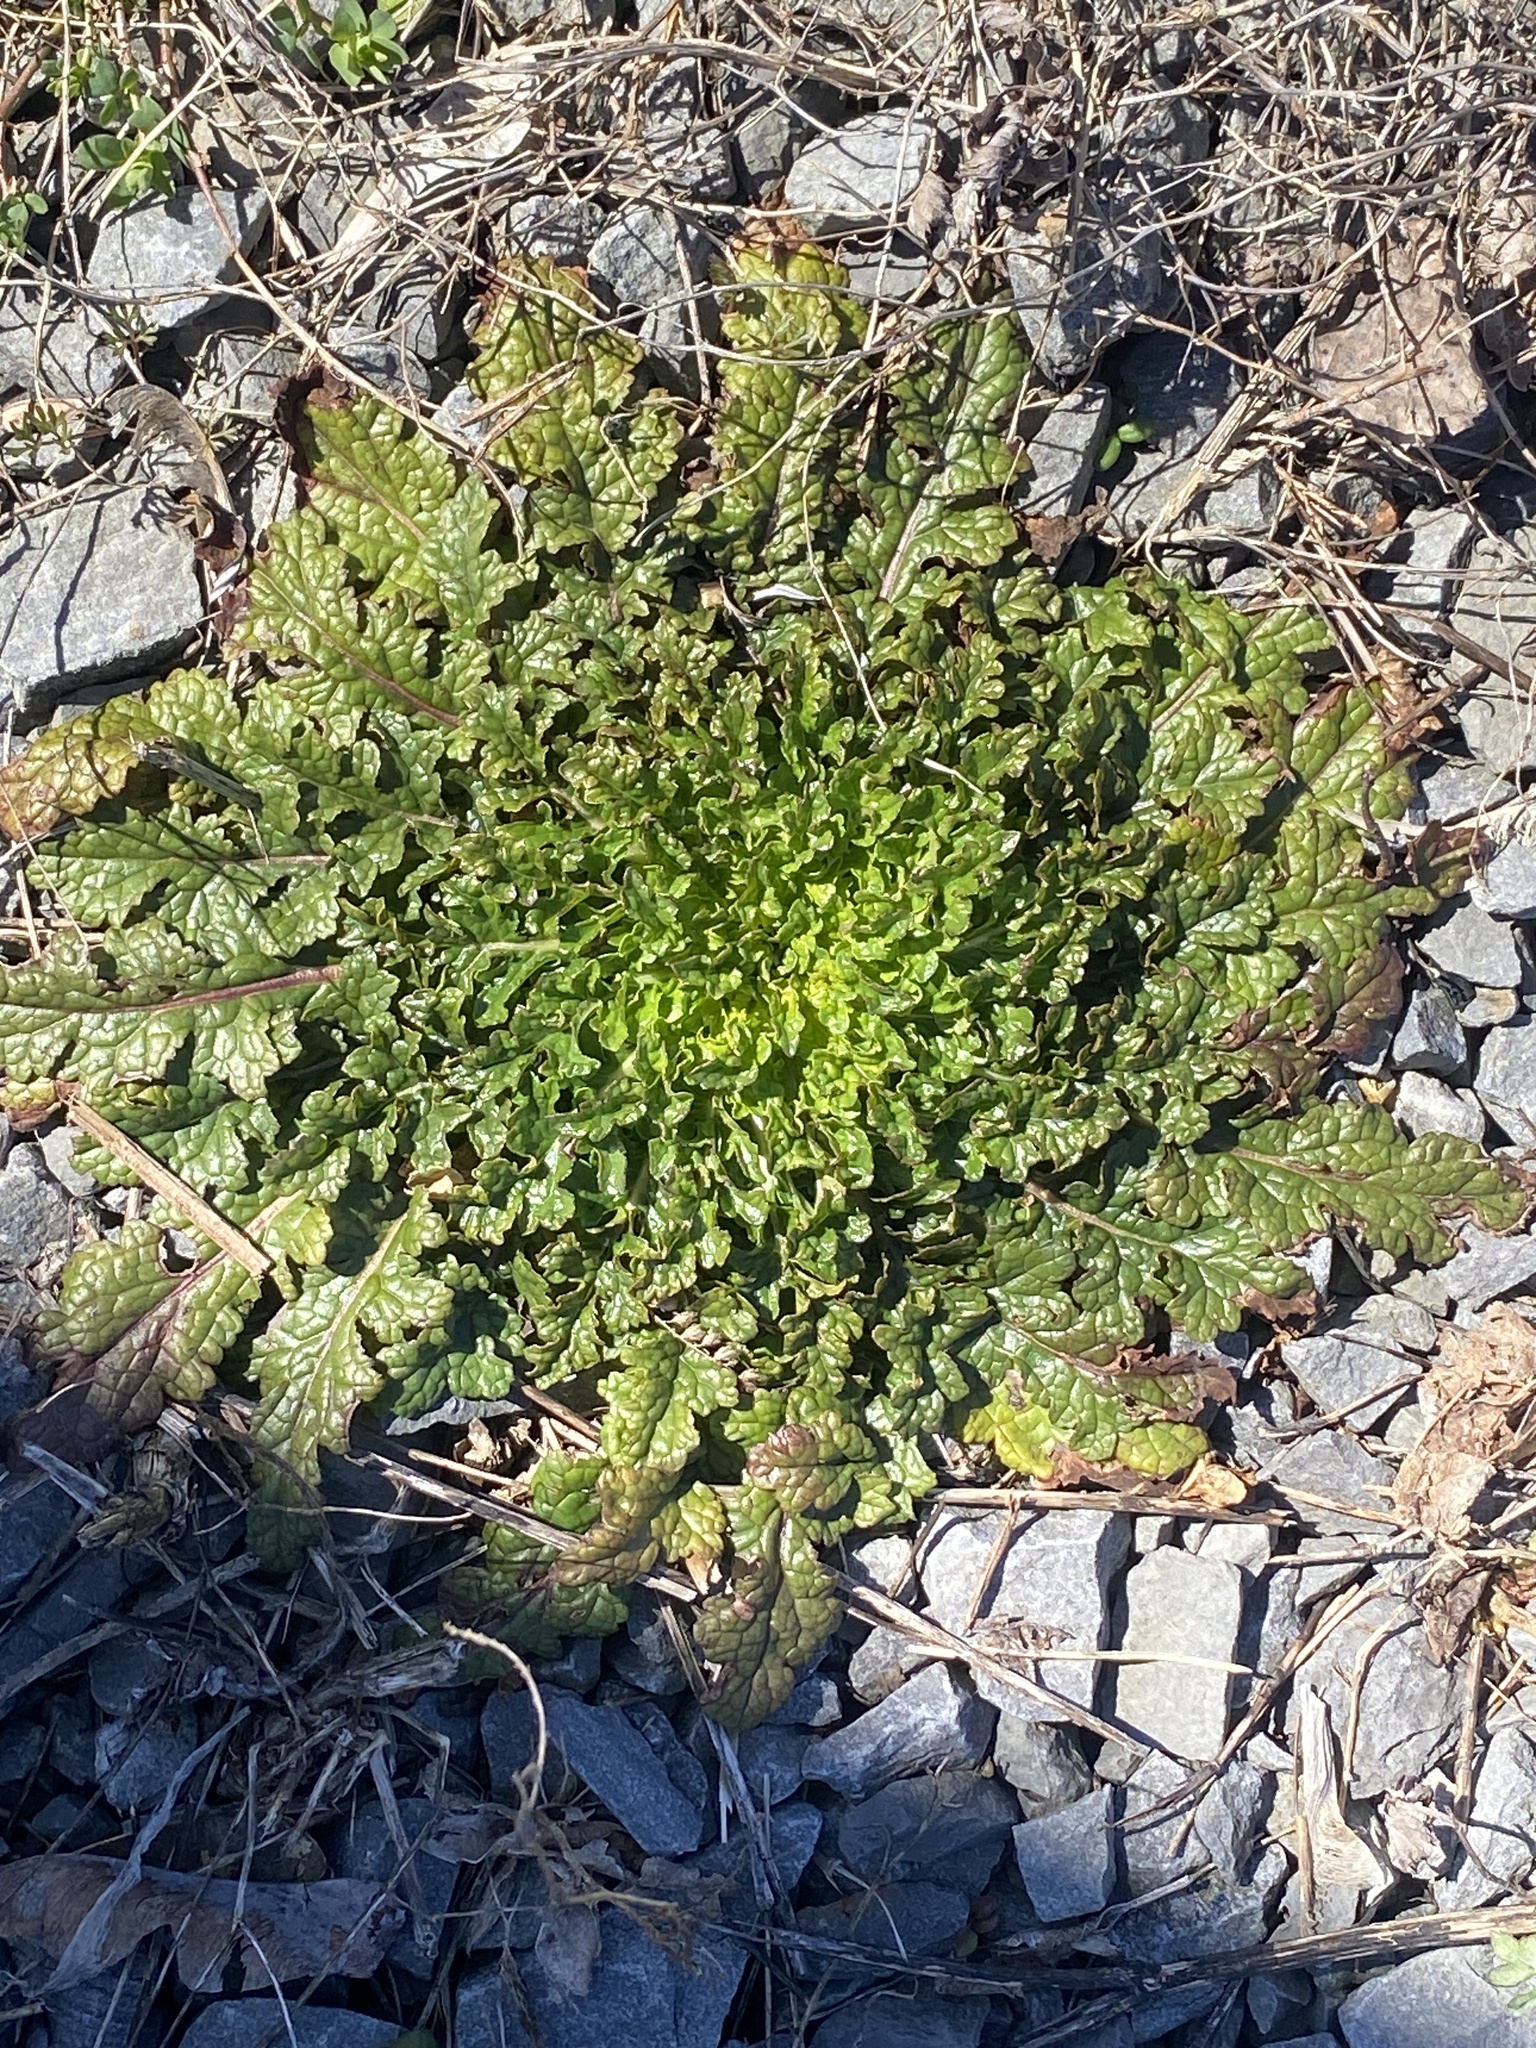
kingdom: Plantae
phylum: Tracheophyta
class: Magnoliopsida
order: Lamiales
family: Scrophulariaceae
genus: Verbascum
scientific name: Verbascum blattaria
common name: Moth mullein
